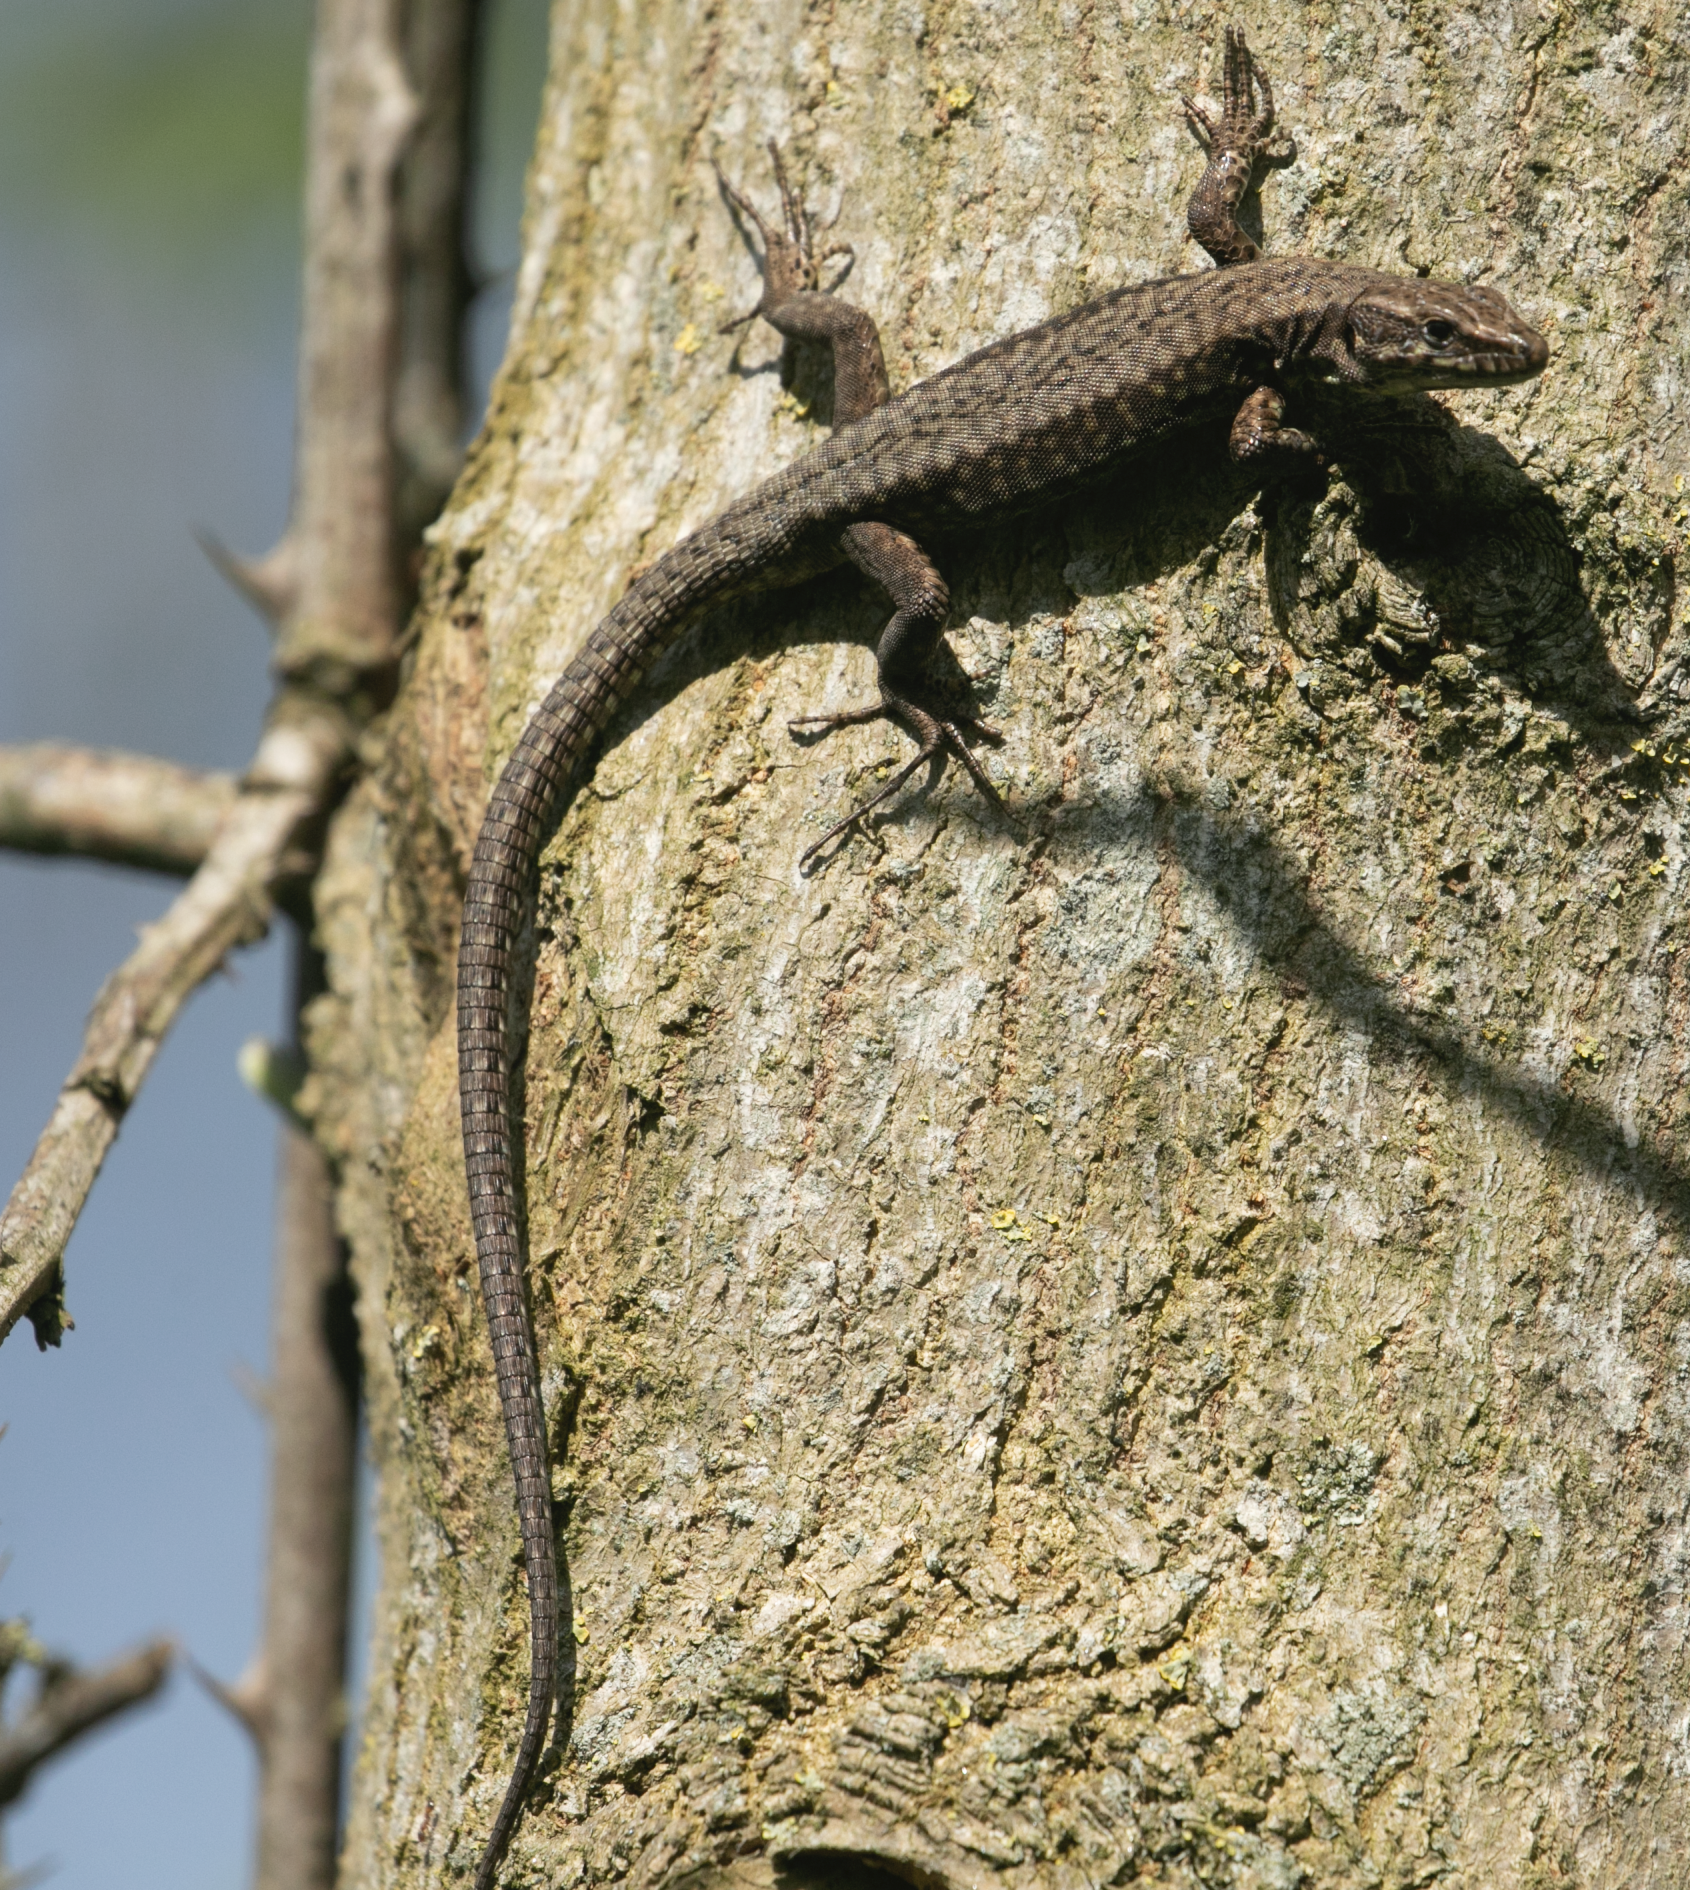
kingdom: Animalia
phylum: Chordata
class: Squamata
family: Lacertidae
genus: Podarcis
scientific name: Podarcis muralis
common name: Common wall lizard
